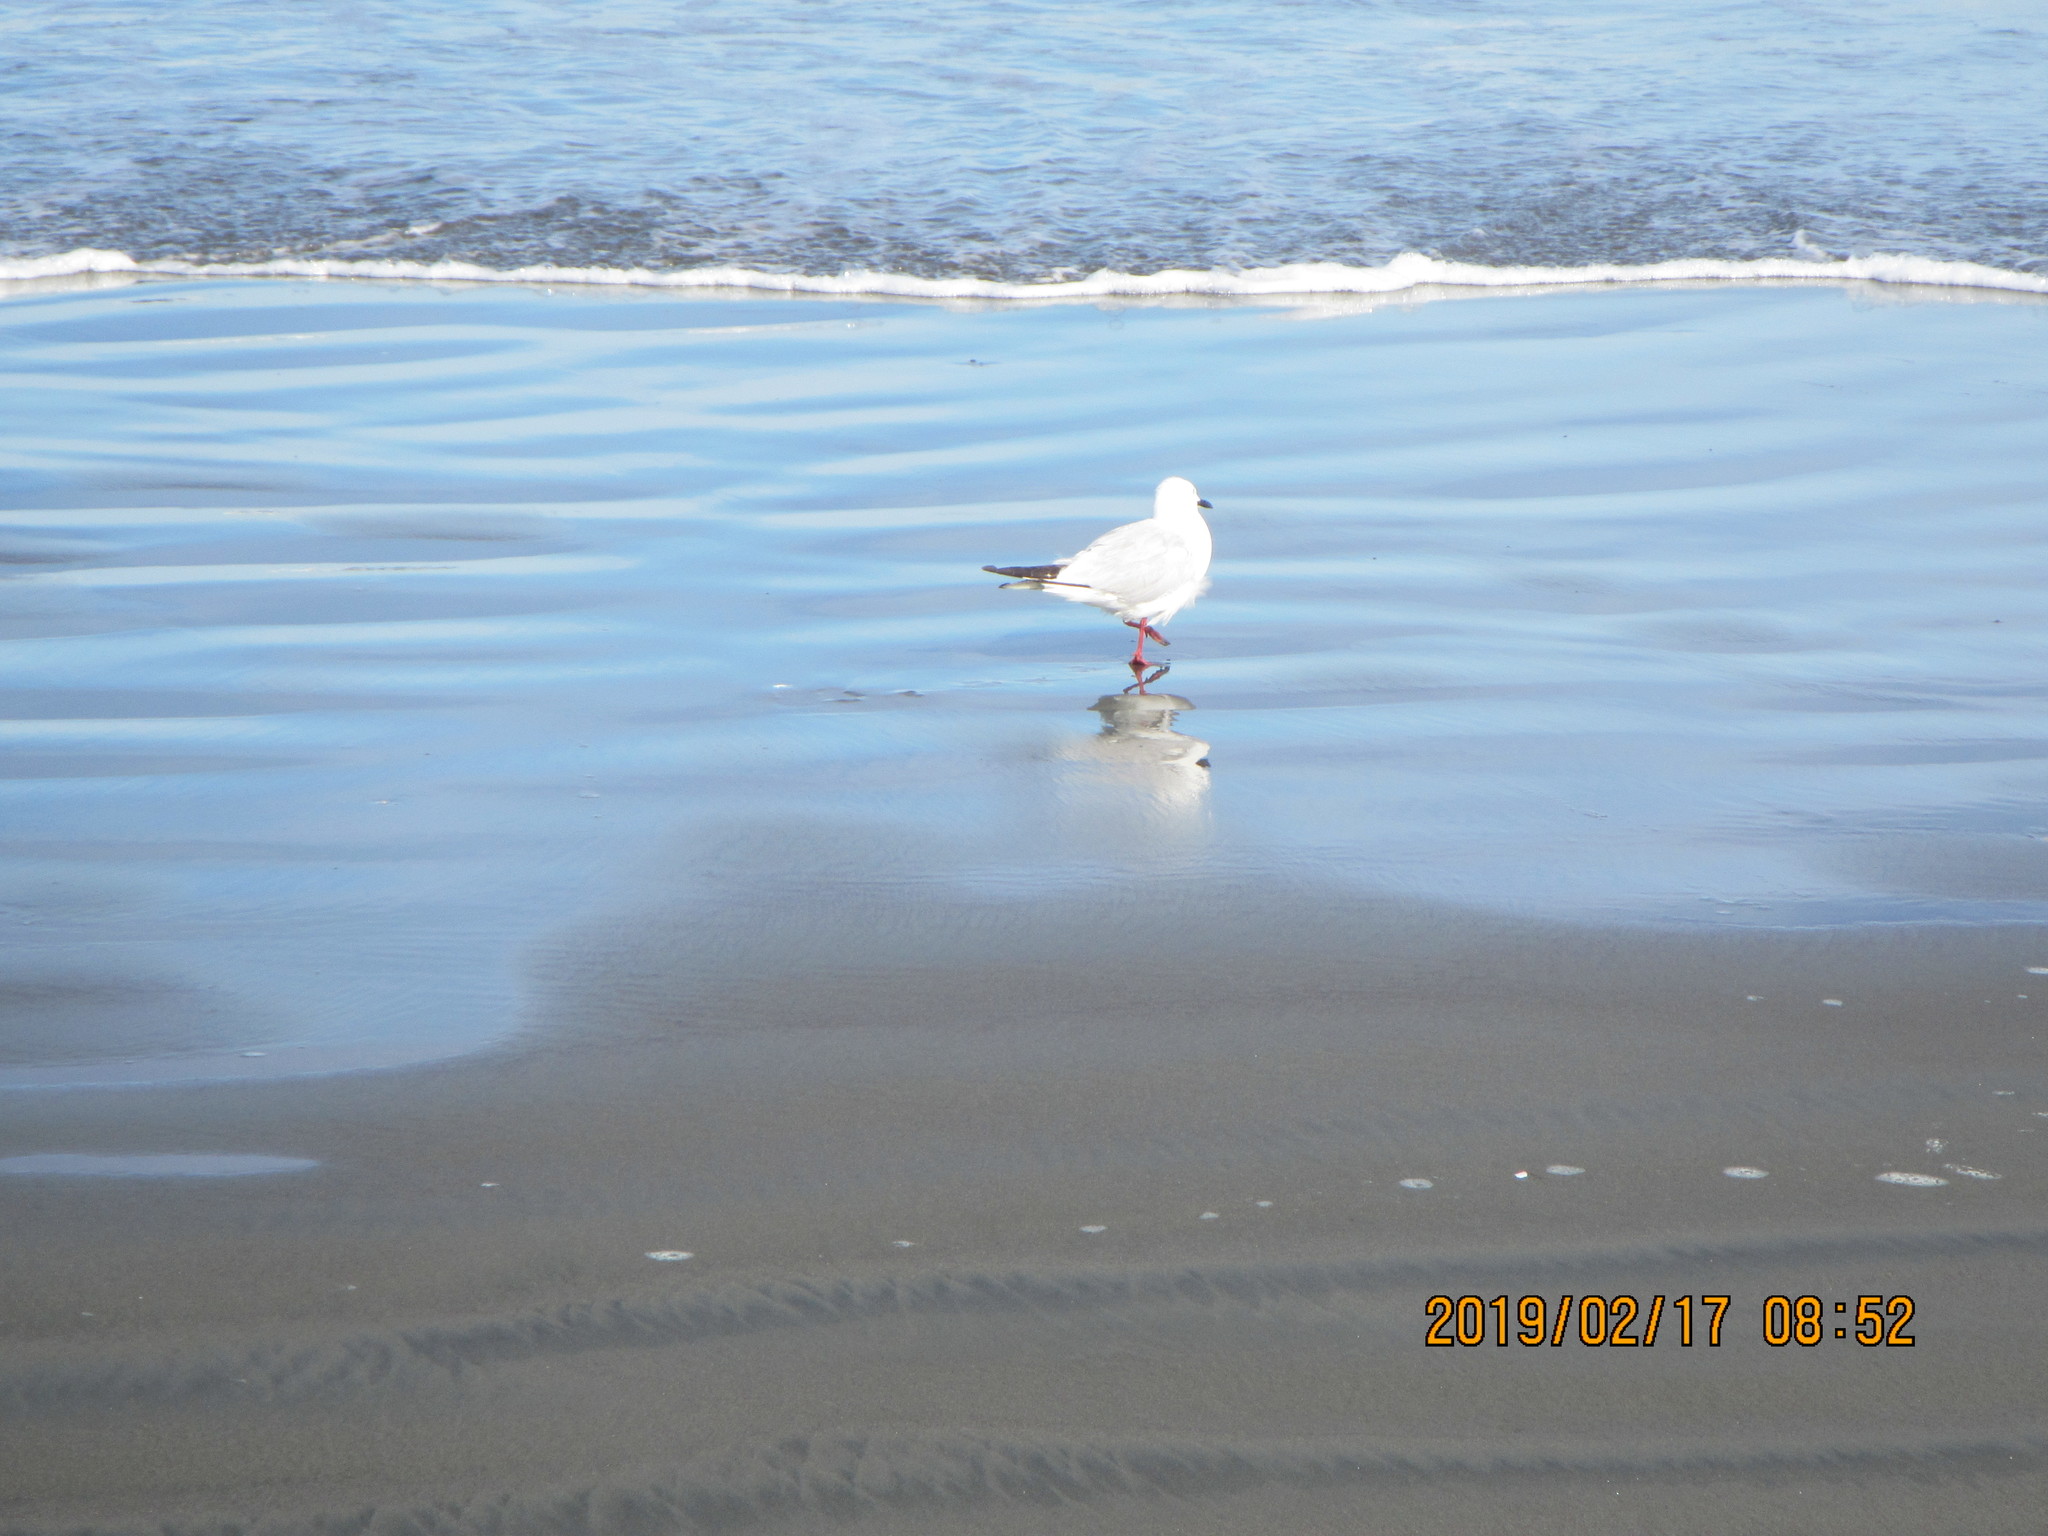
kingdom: Animalia
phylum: Chordata
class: Aves
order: Charadriiformes
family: Laridae
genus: Chroicocephalus
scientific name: Chroicocephalus bulleri
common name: Black-billed gull
